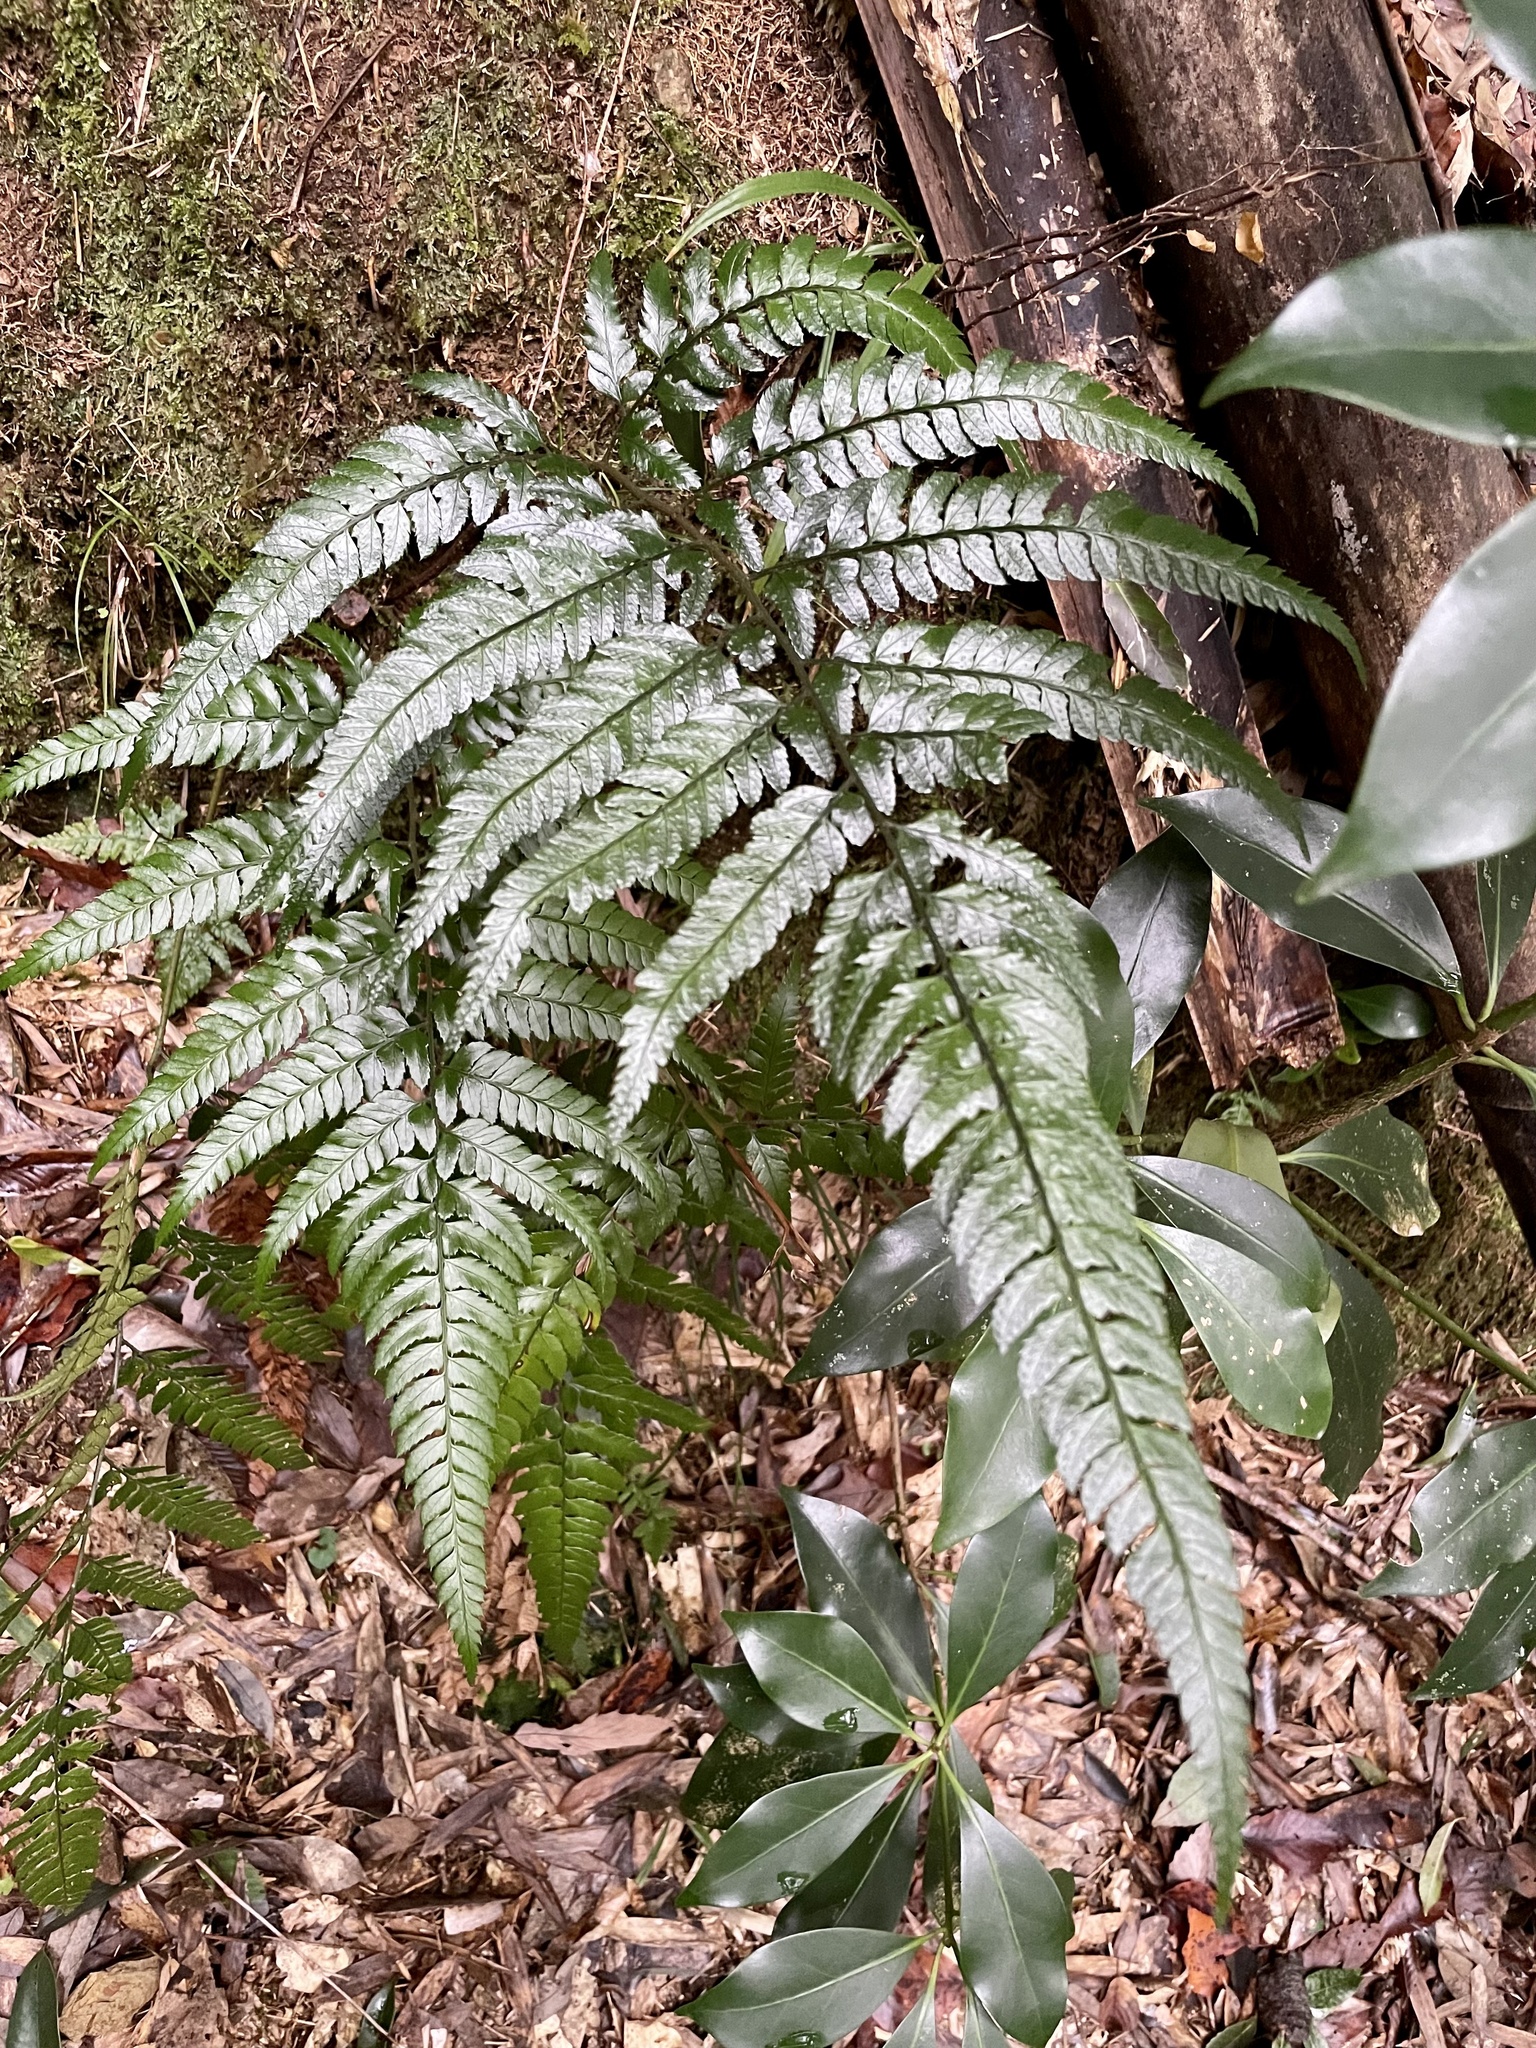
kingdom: Plantae
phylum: Tracheophyta
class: Polypodiopsida
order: Polypodiales
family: Dryopteridaceae
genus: Arachniodes
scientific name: Arachniodes chinensis
